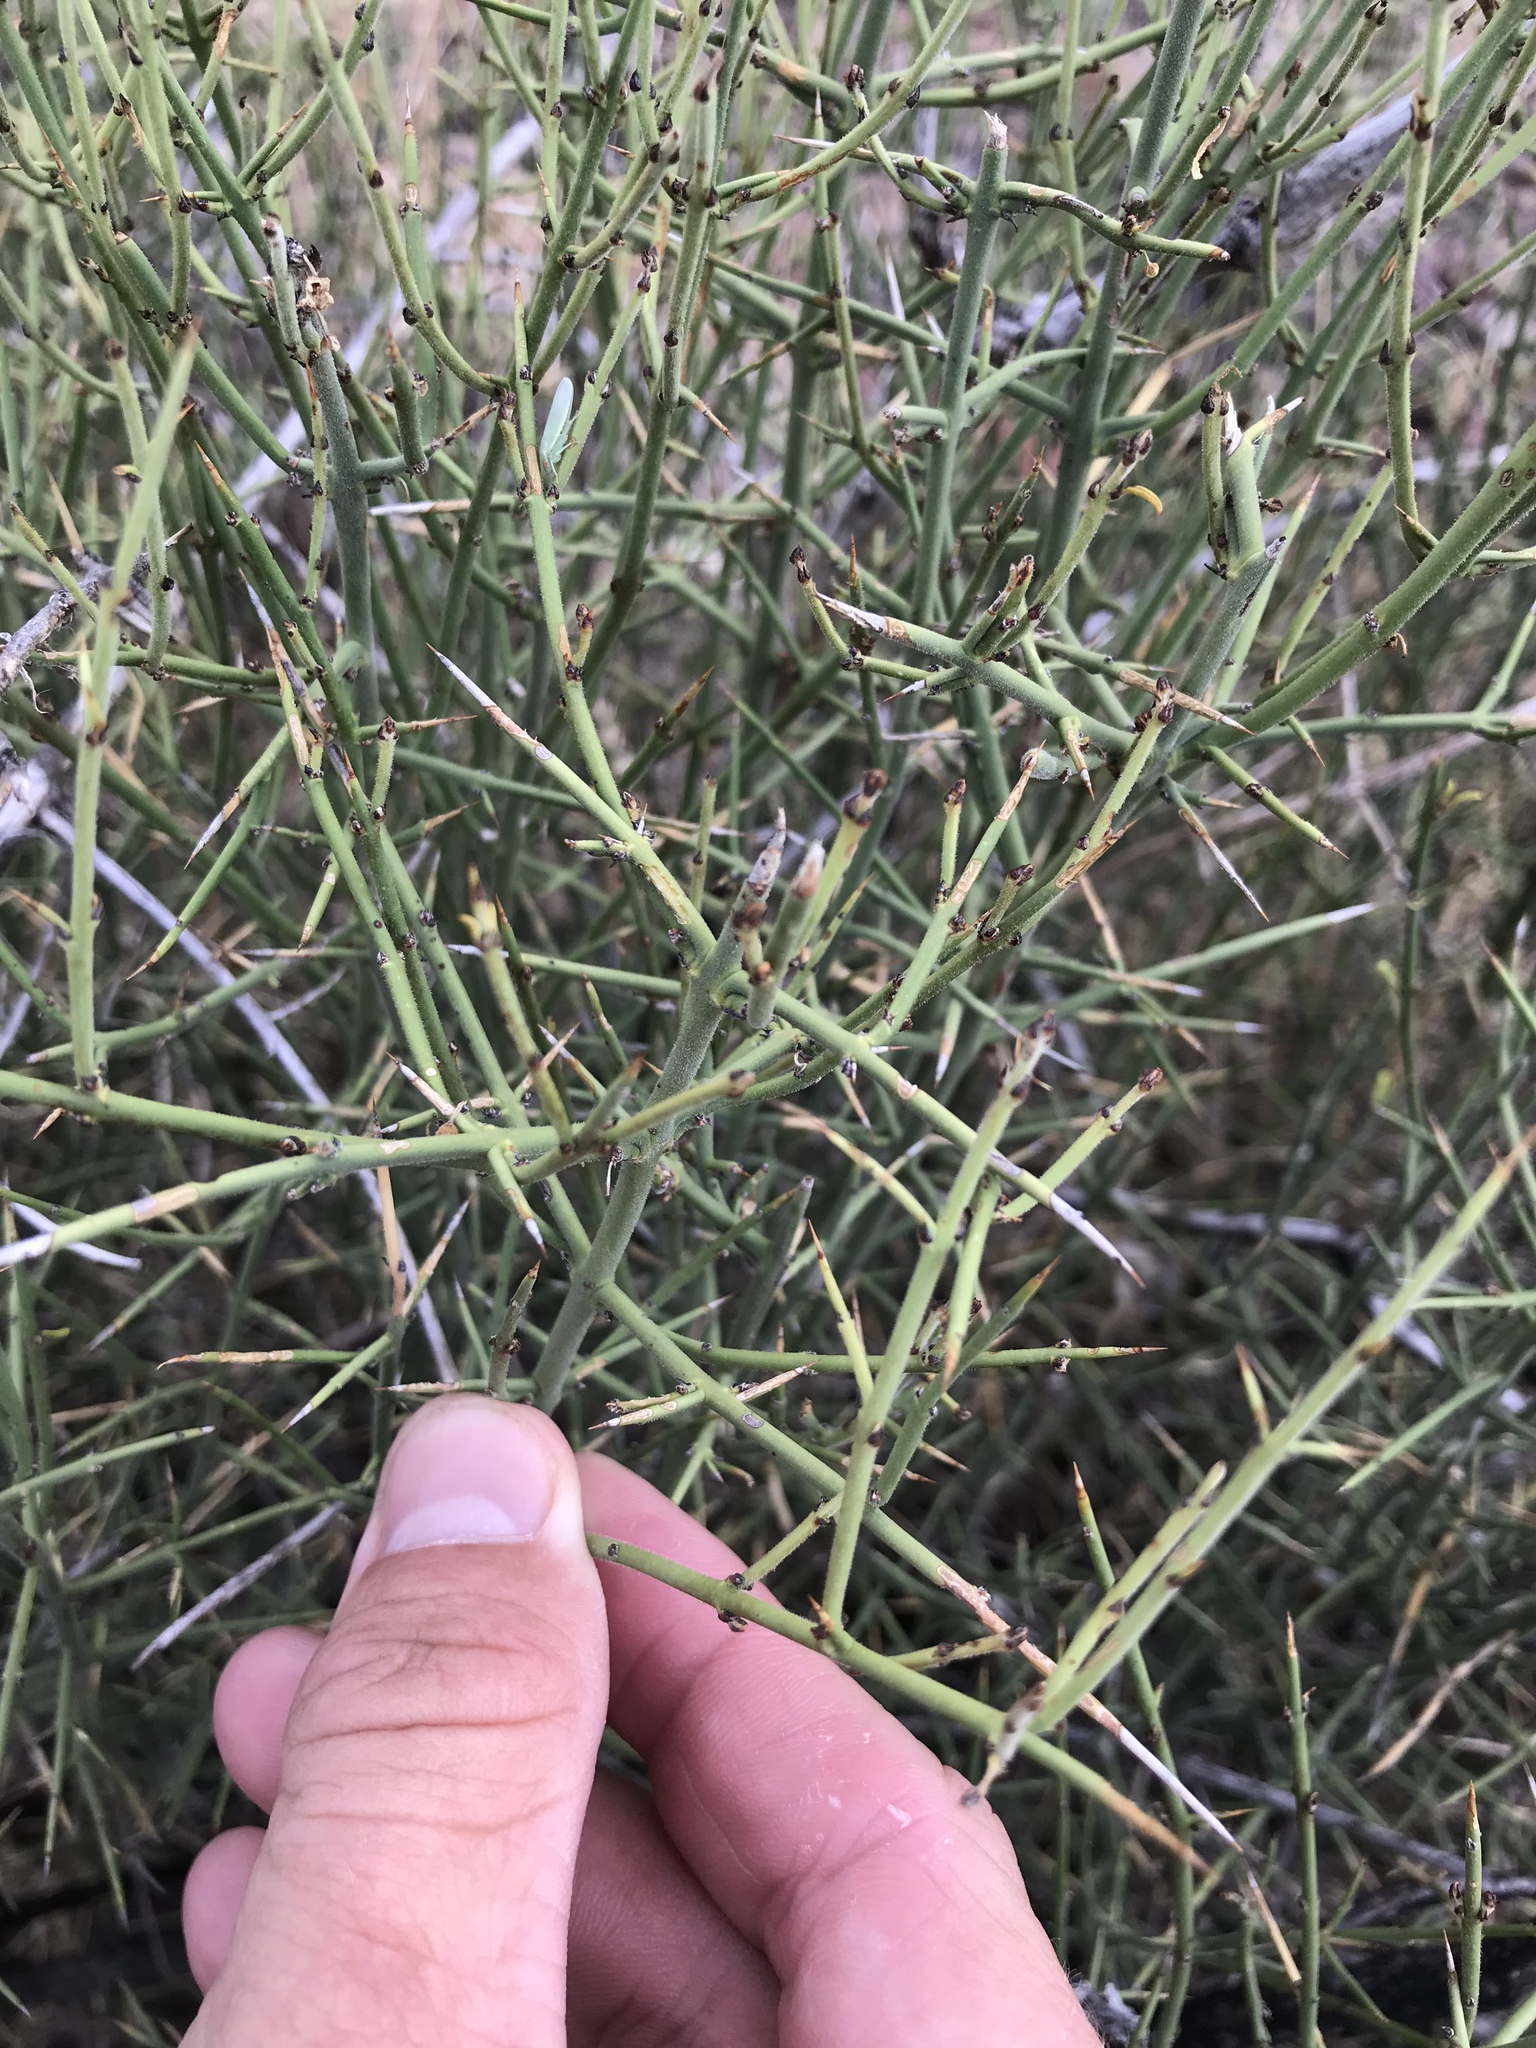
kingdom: Plantae
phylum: Tracheophyta
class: Magnoliopsida
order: Rosales
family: Rhamnaceae
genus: Adolphia
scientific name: Adolphia infesta
